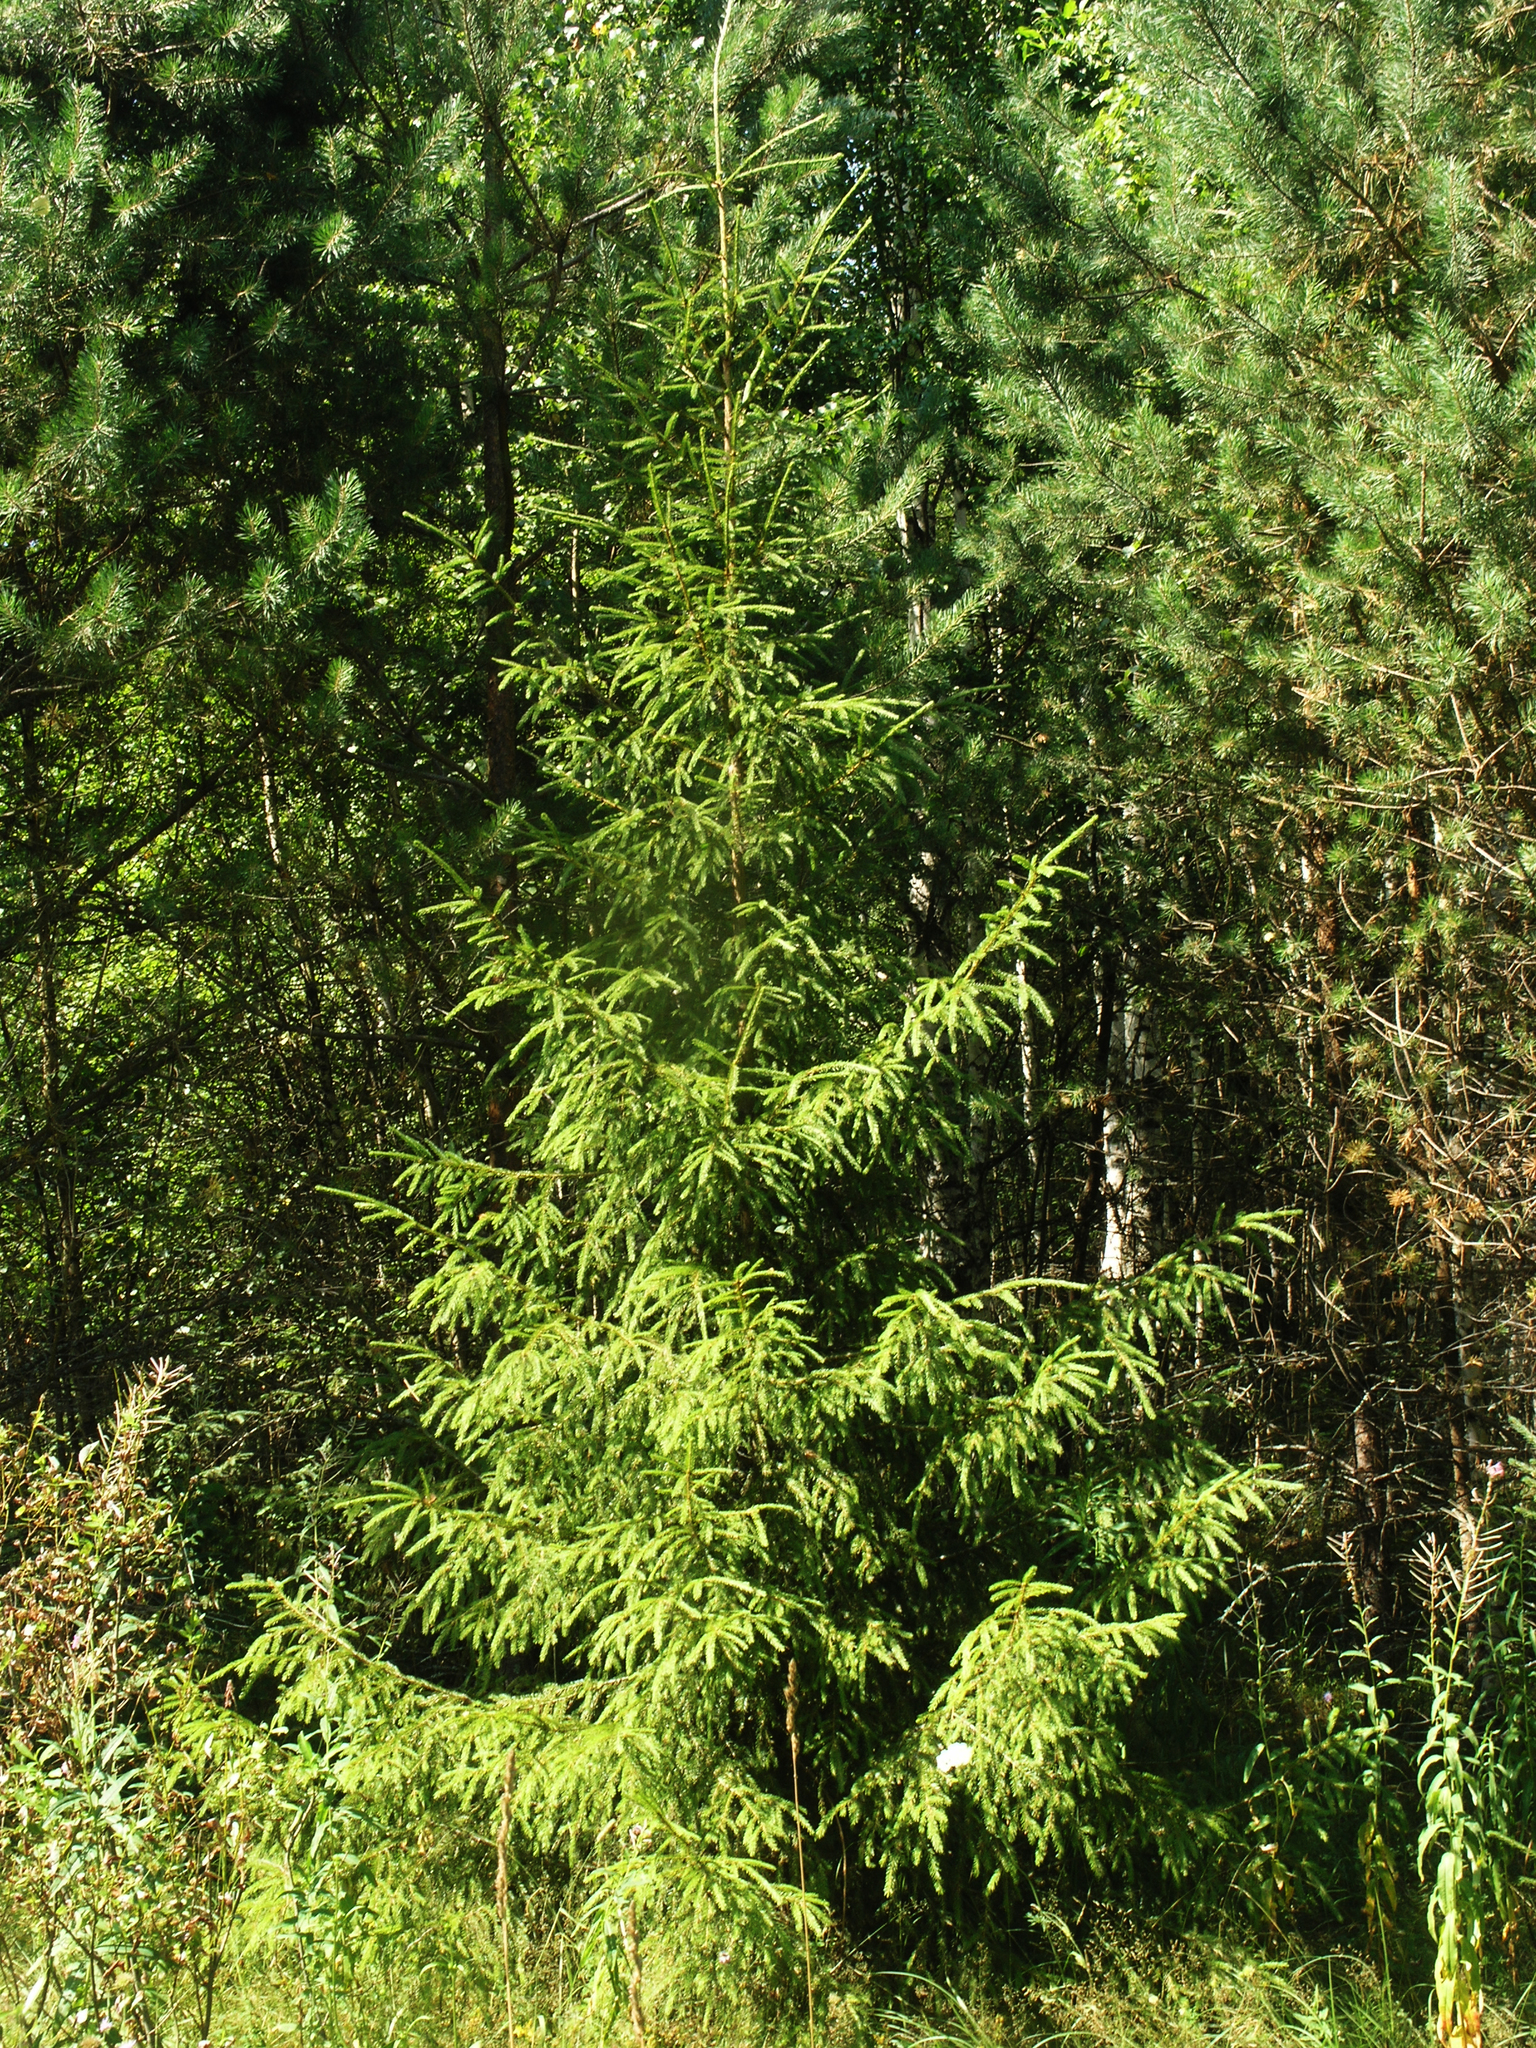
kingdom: Plantae
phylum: Tracheophyta
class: Pinopsida
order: Pinales
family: Pinaceae
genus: Picea
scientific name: Picea abies
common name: Norway spruce
